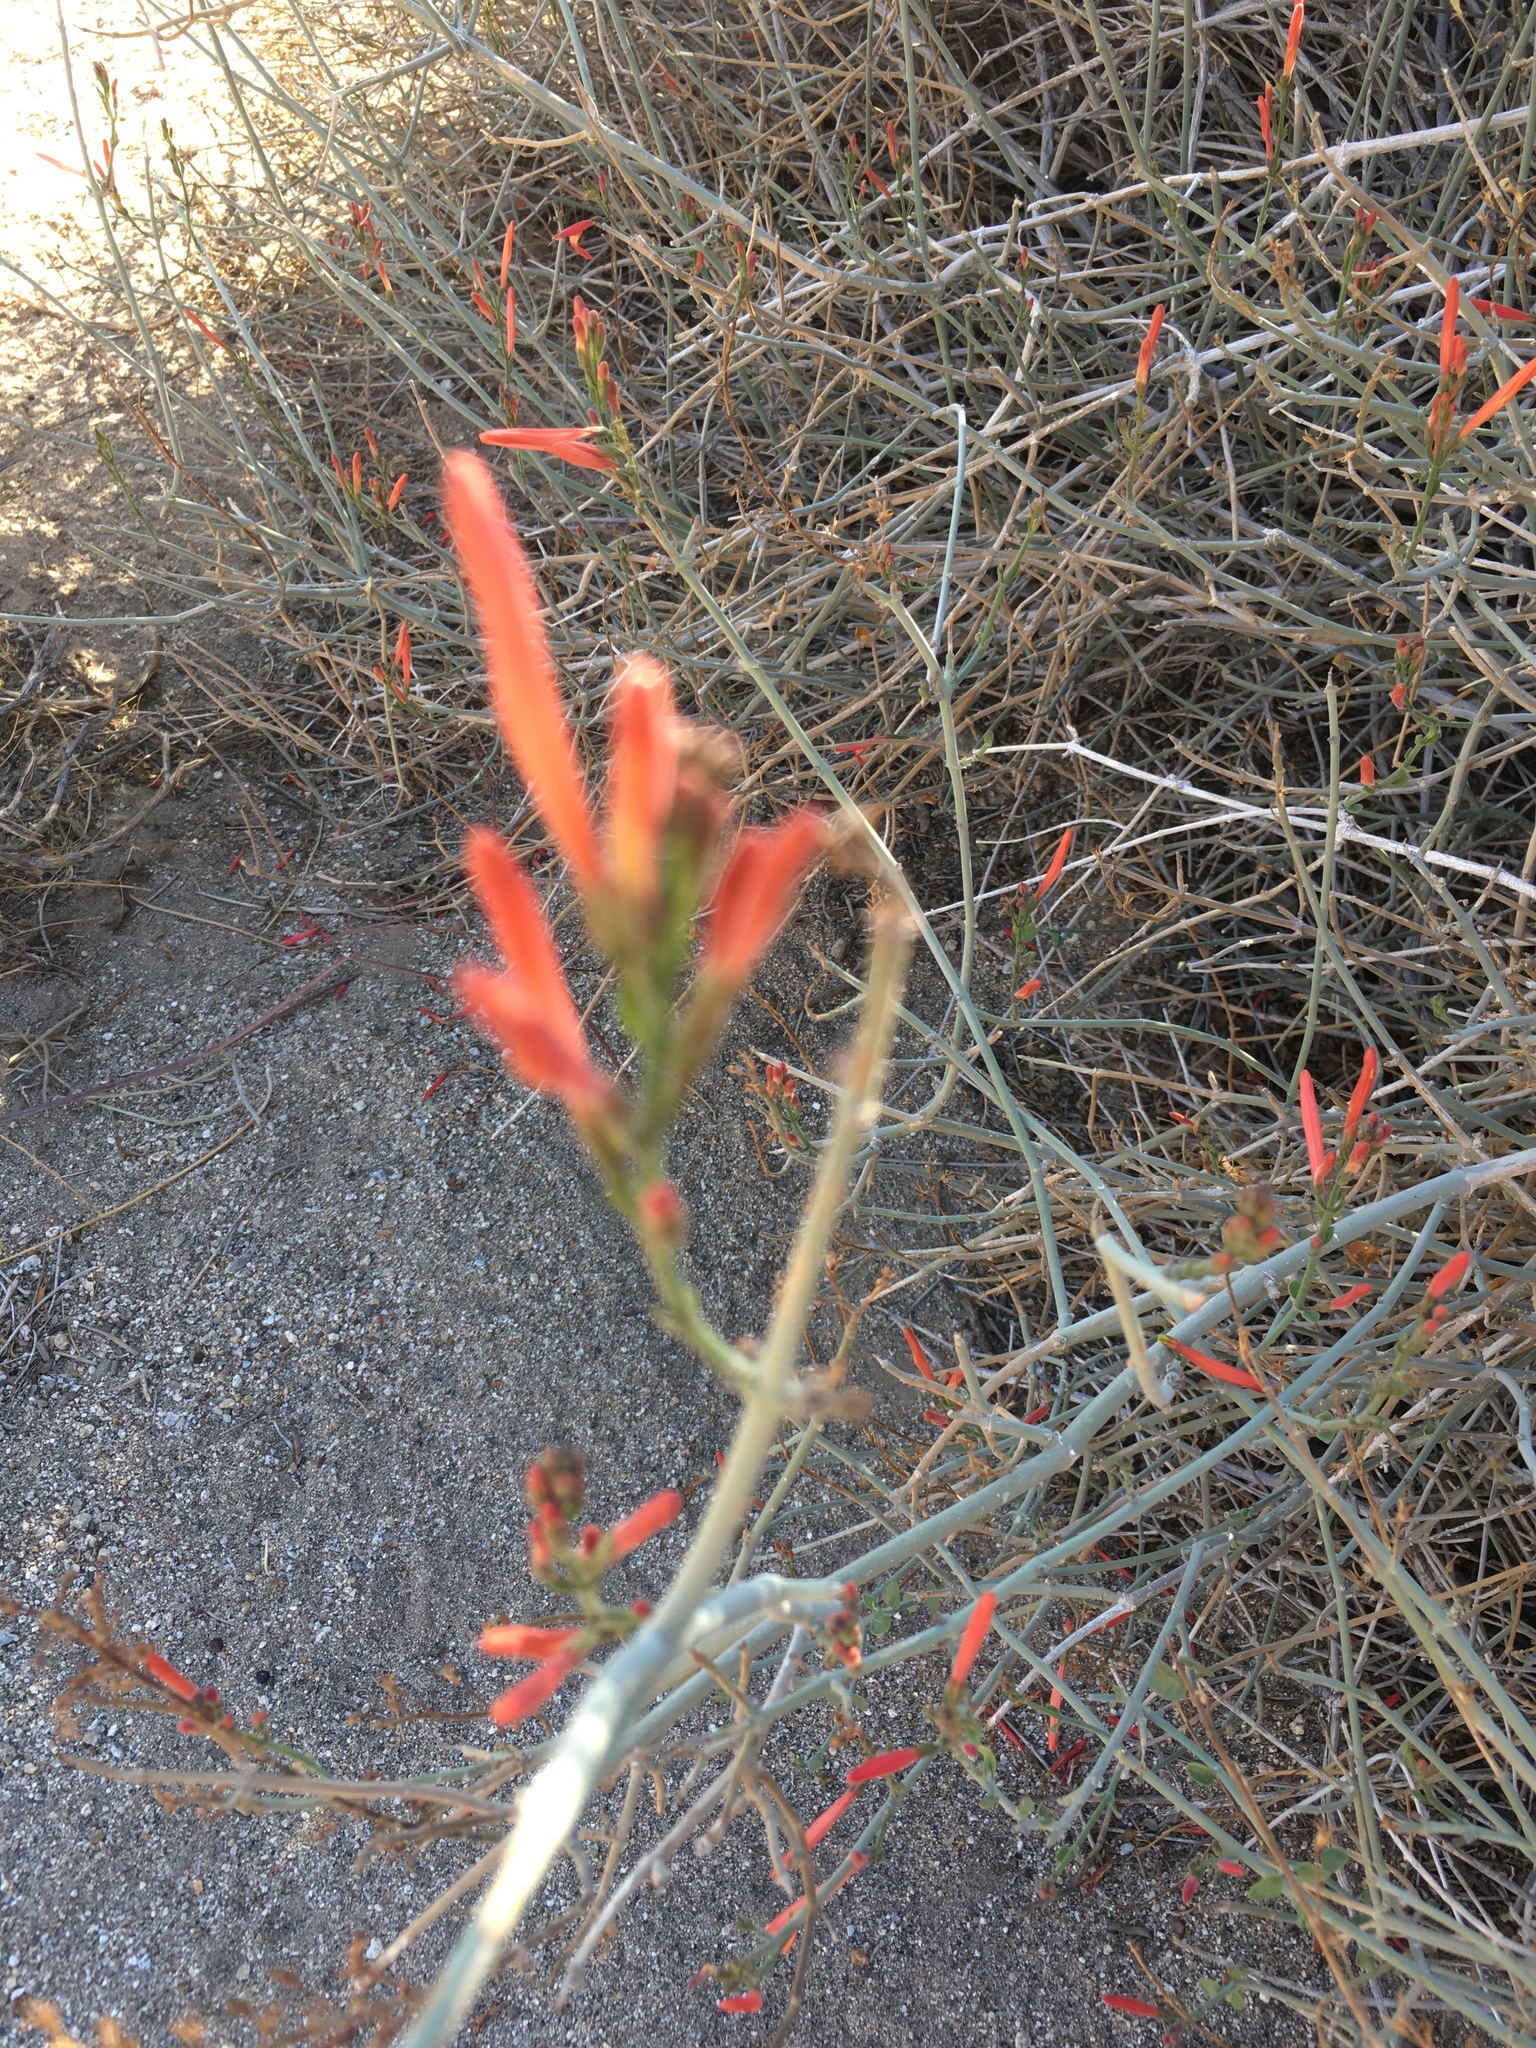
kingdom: Plantae
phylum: Tracheophyta
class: Magnoliopsida
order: Lamiales
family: Acanthaceae
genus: Justicia
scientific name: Justicia californica
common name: Chuparosa-honeysuckle
